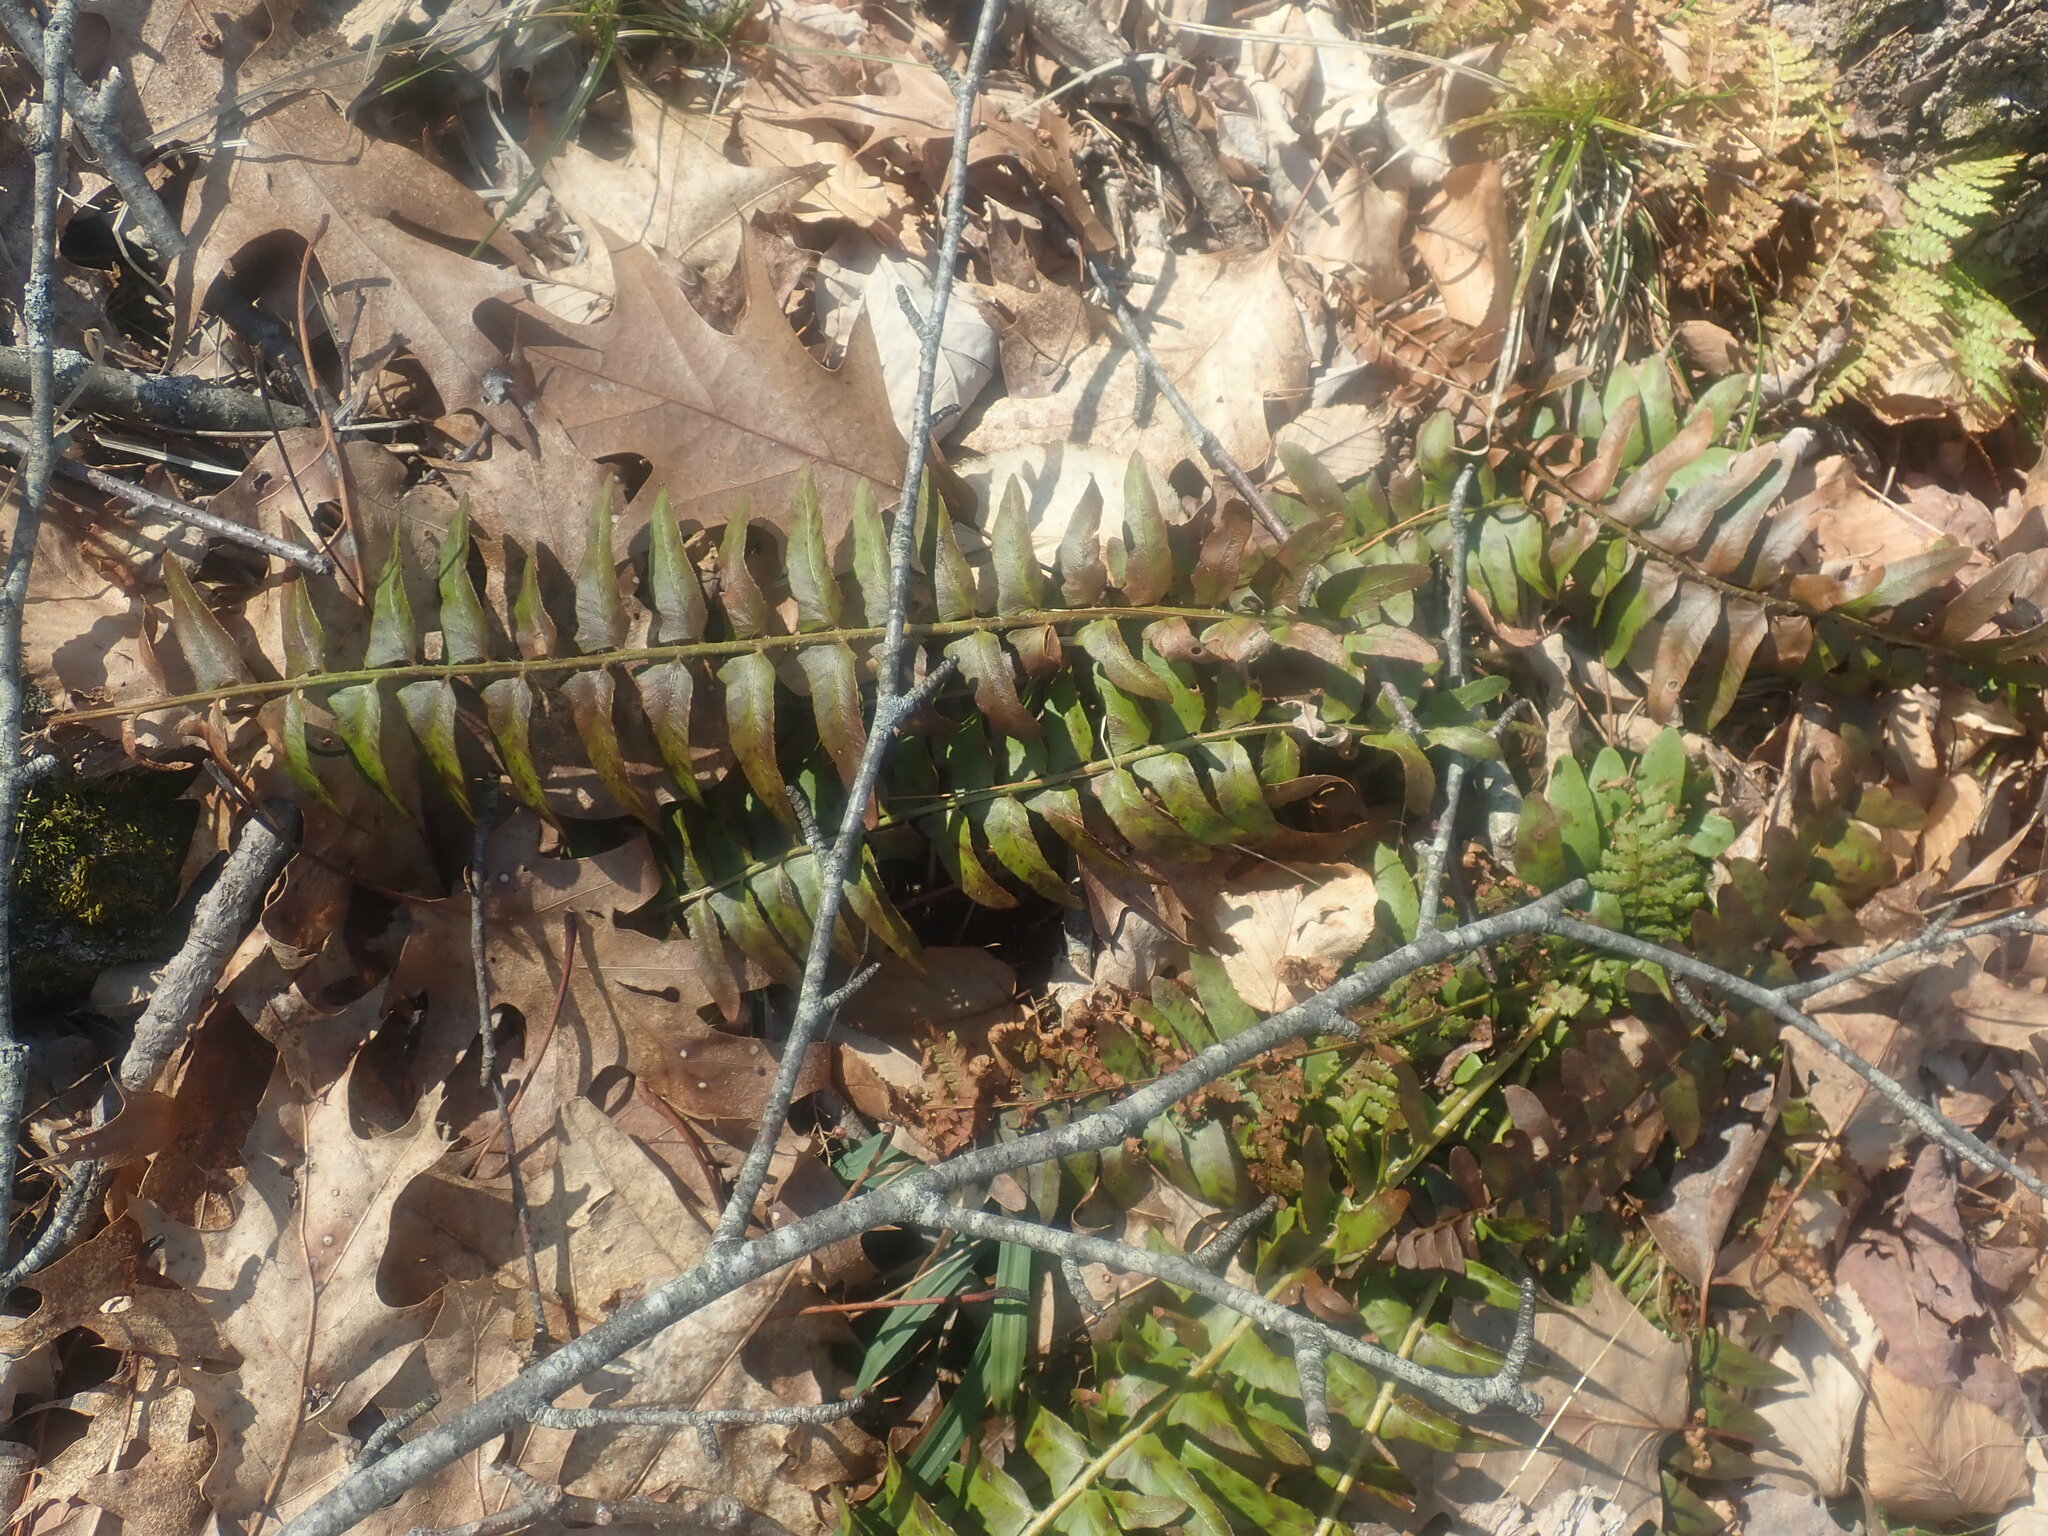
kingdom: Plantae
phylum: Tracheophyta
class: Polypodiopsida
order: Polypodiales
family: Dryopteridaceae
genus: Polystichum
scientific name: Polystichum acrostichoides
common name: Christmas fern
